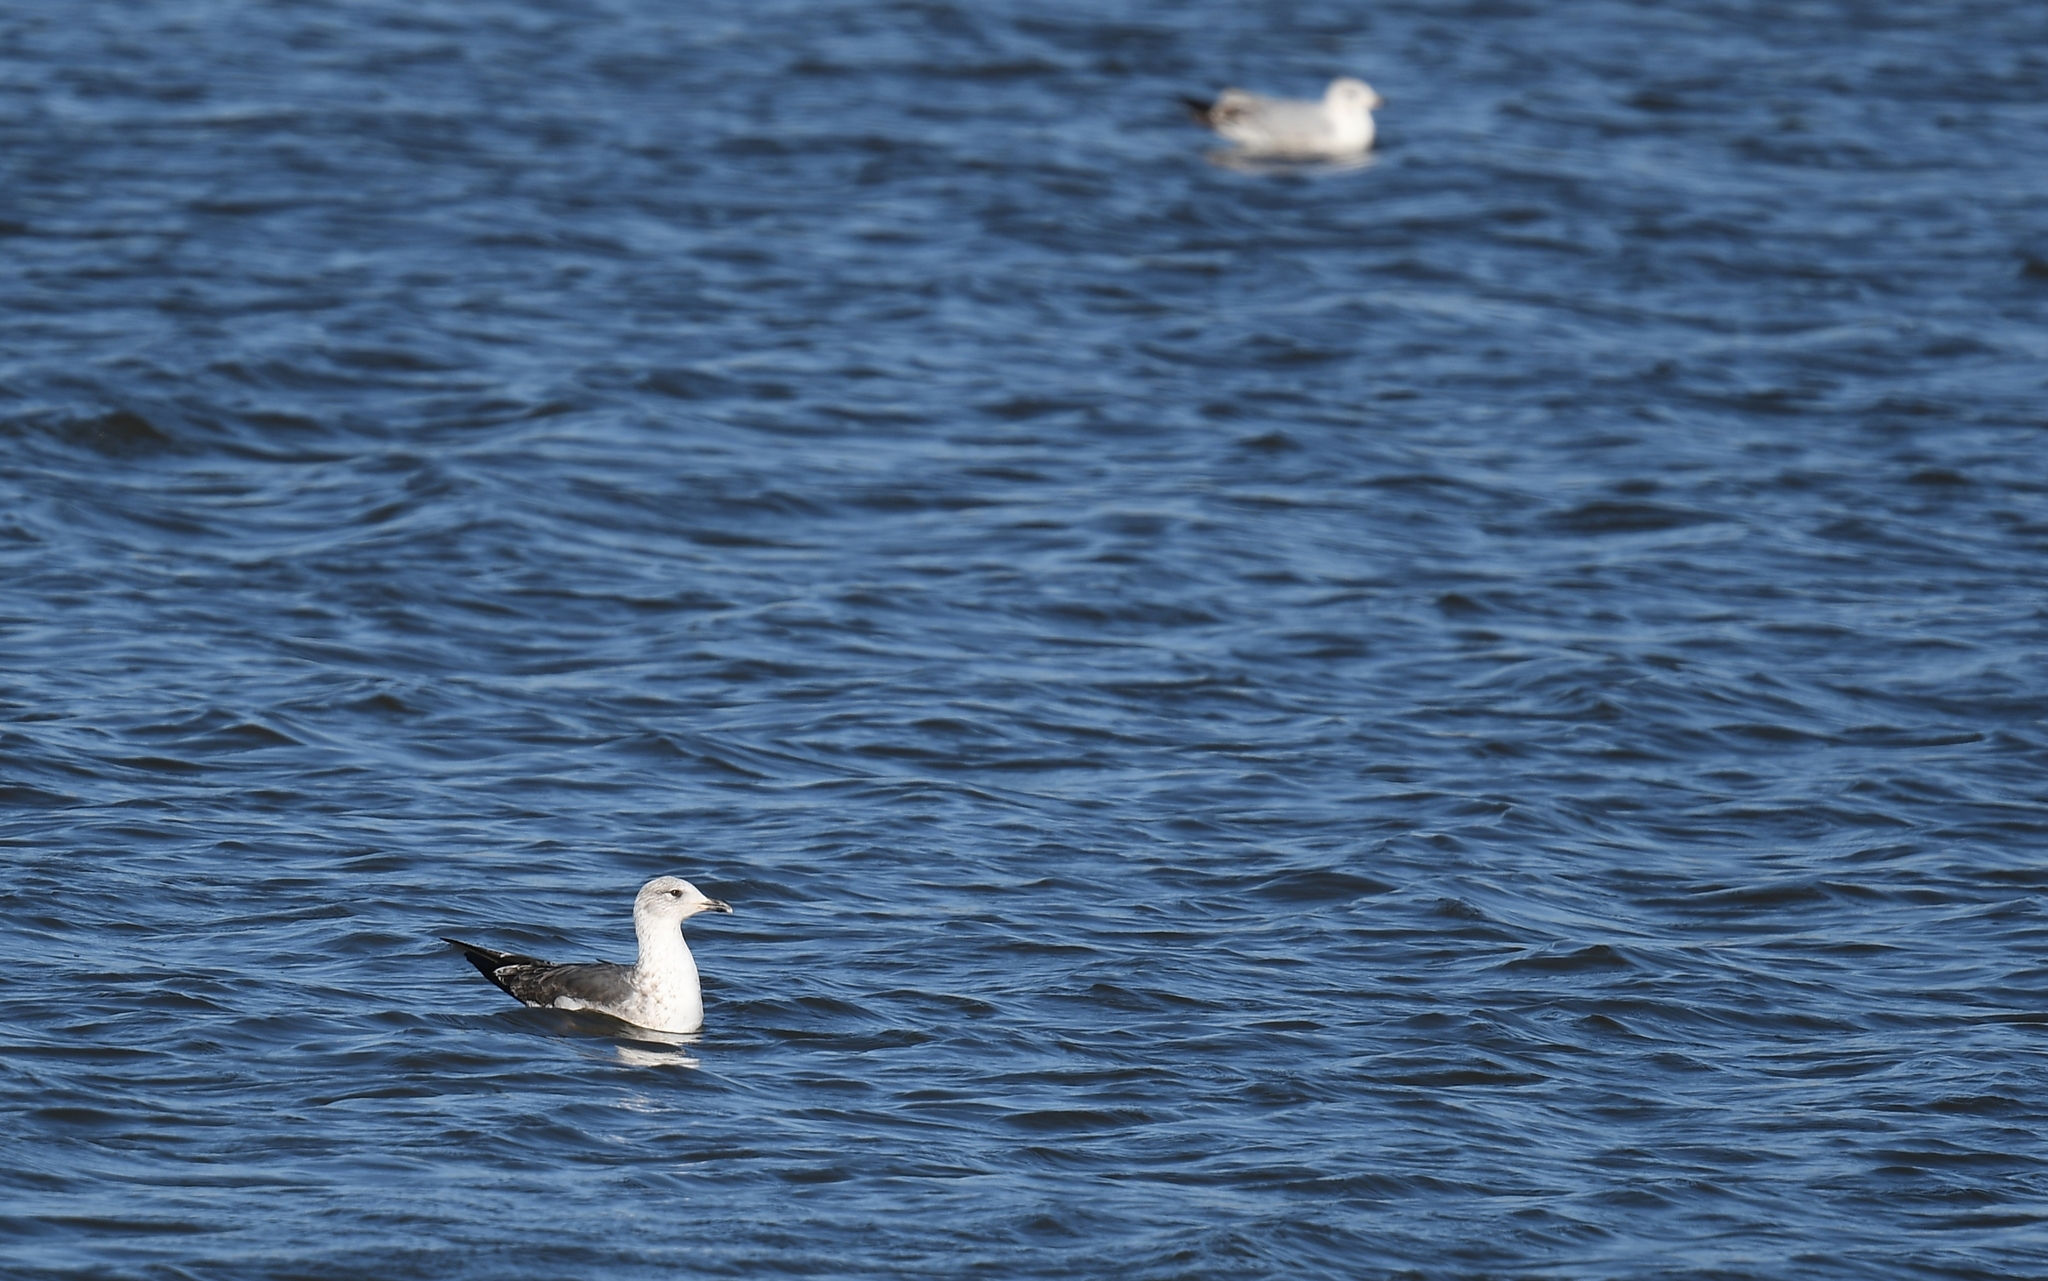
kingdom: Animalia
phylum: Chordata
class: Aves
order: Charadriiformes
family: Laridae
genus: Larus
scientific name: Larus fuscus
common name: Lesser black-backed gull
